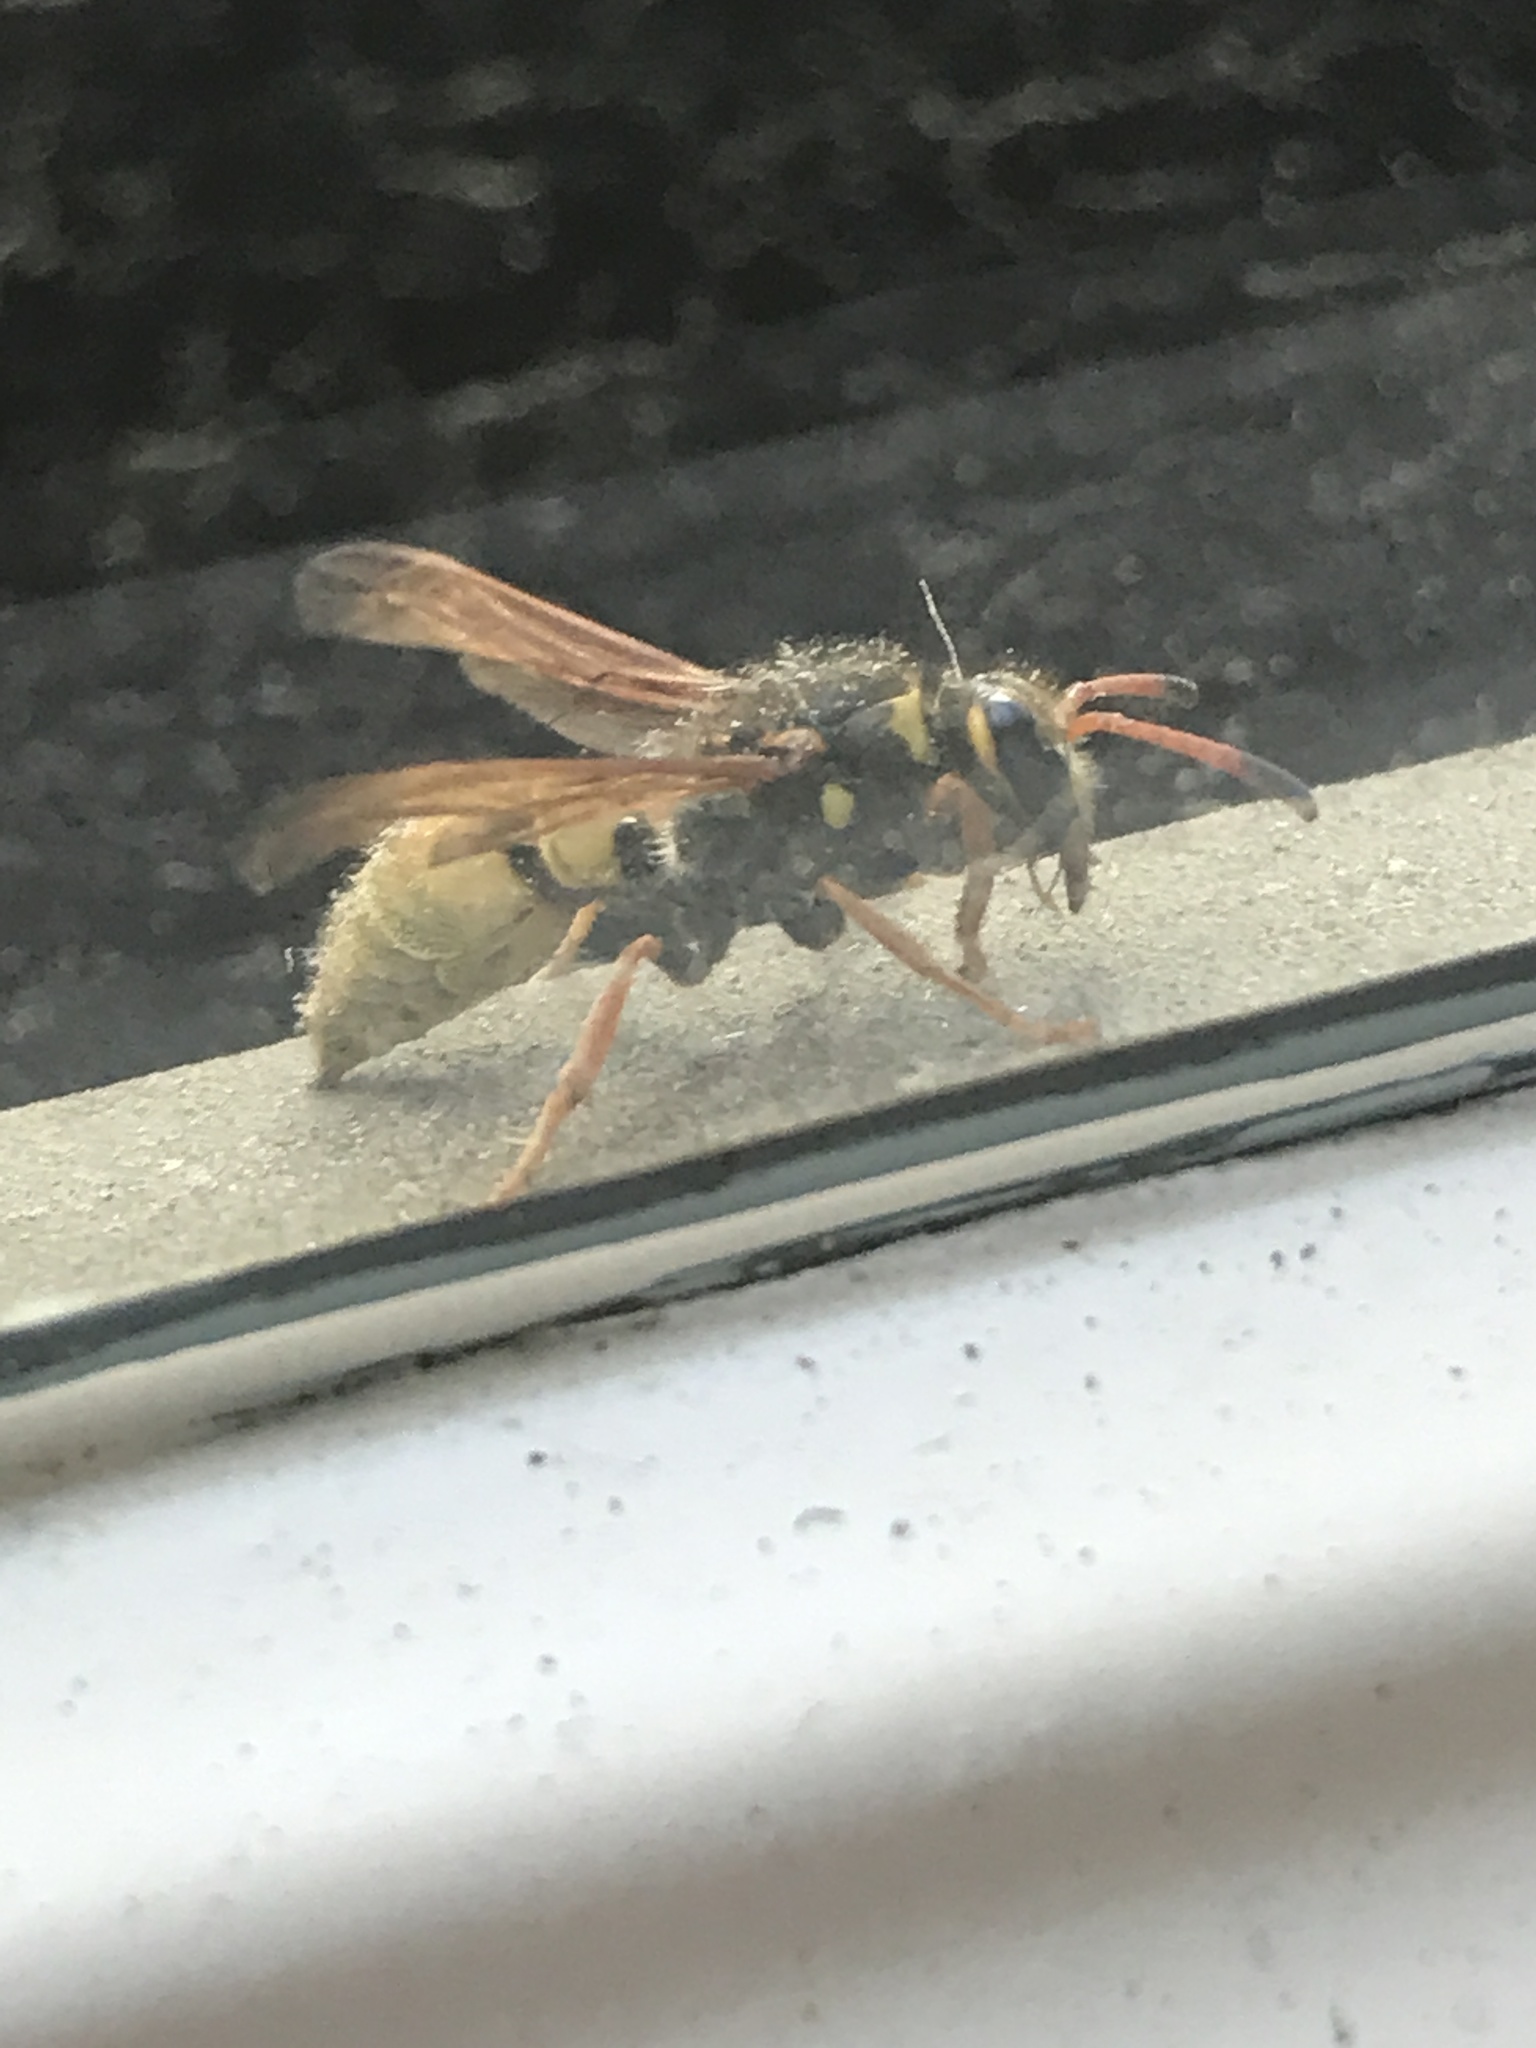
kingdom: Animalia
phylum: Arthropoda
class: Insecta
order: Hymenoptera
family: Vespidae
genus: Ancistrocerus
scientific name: Ancistrocerus
